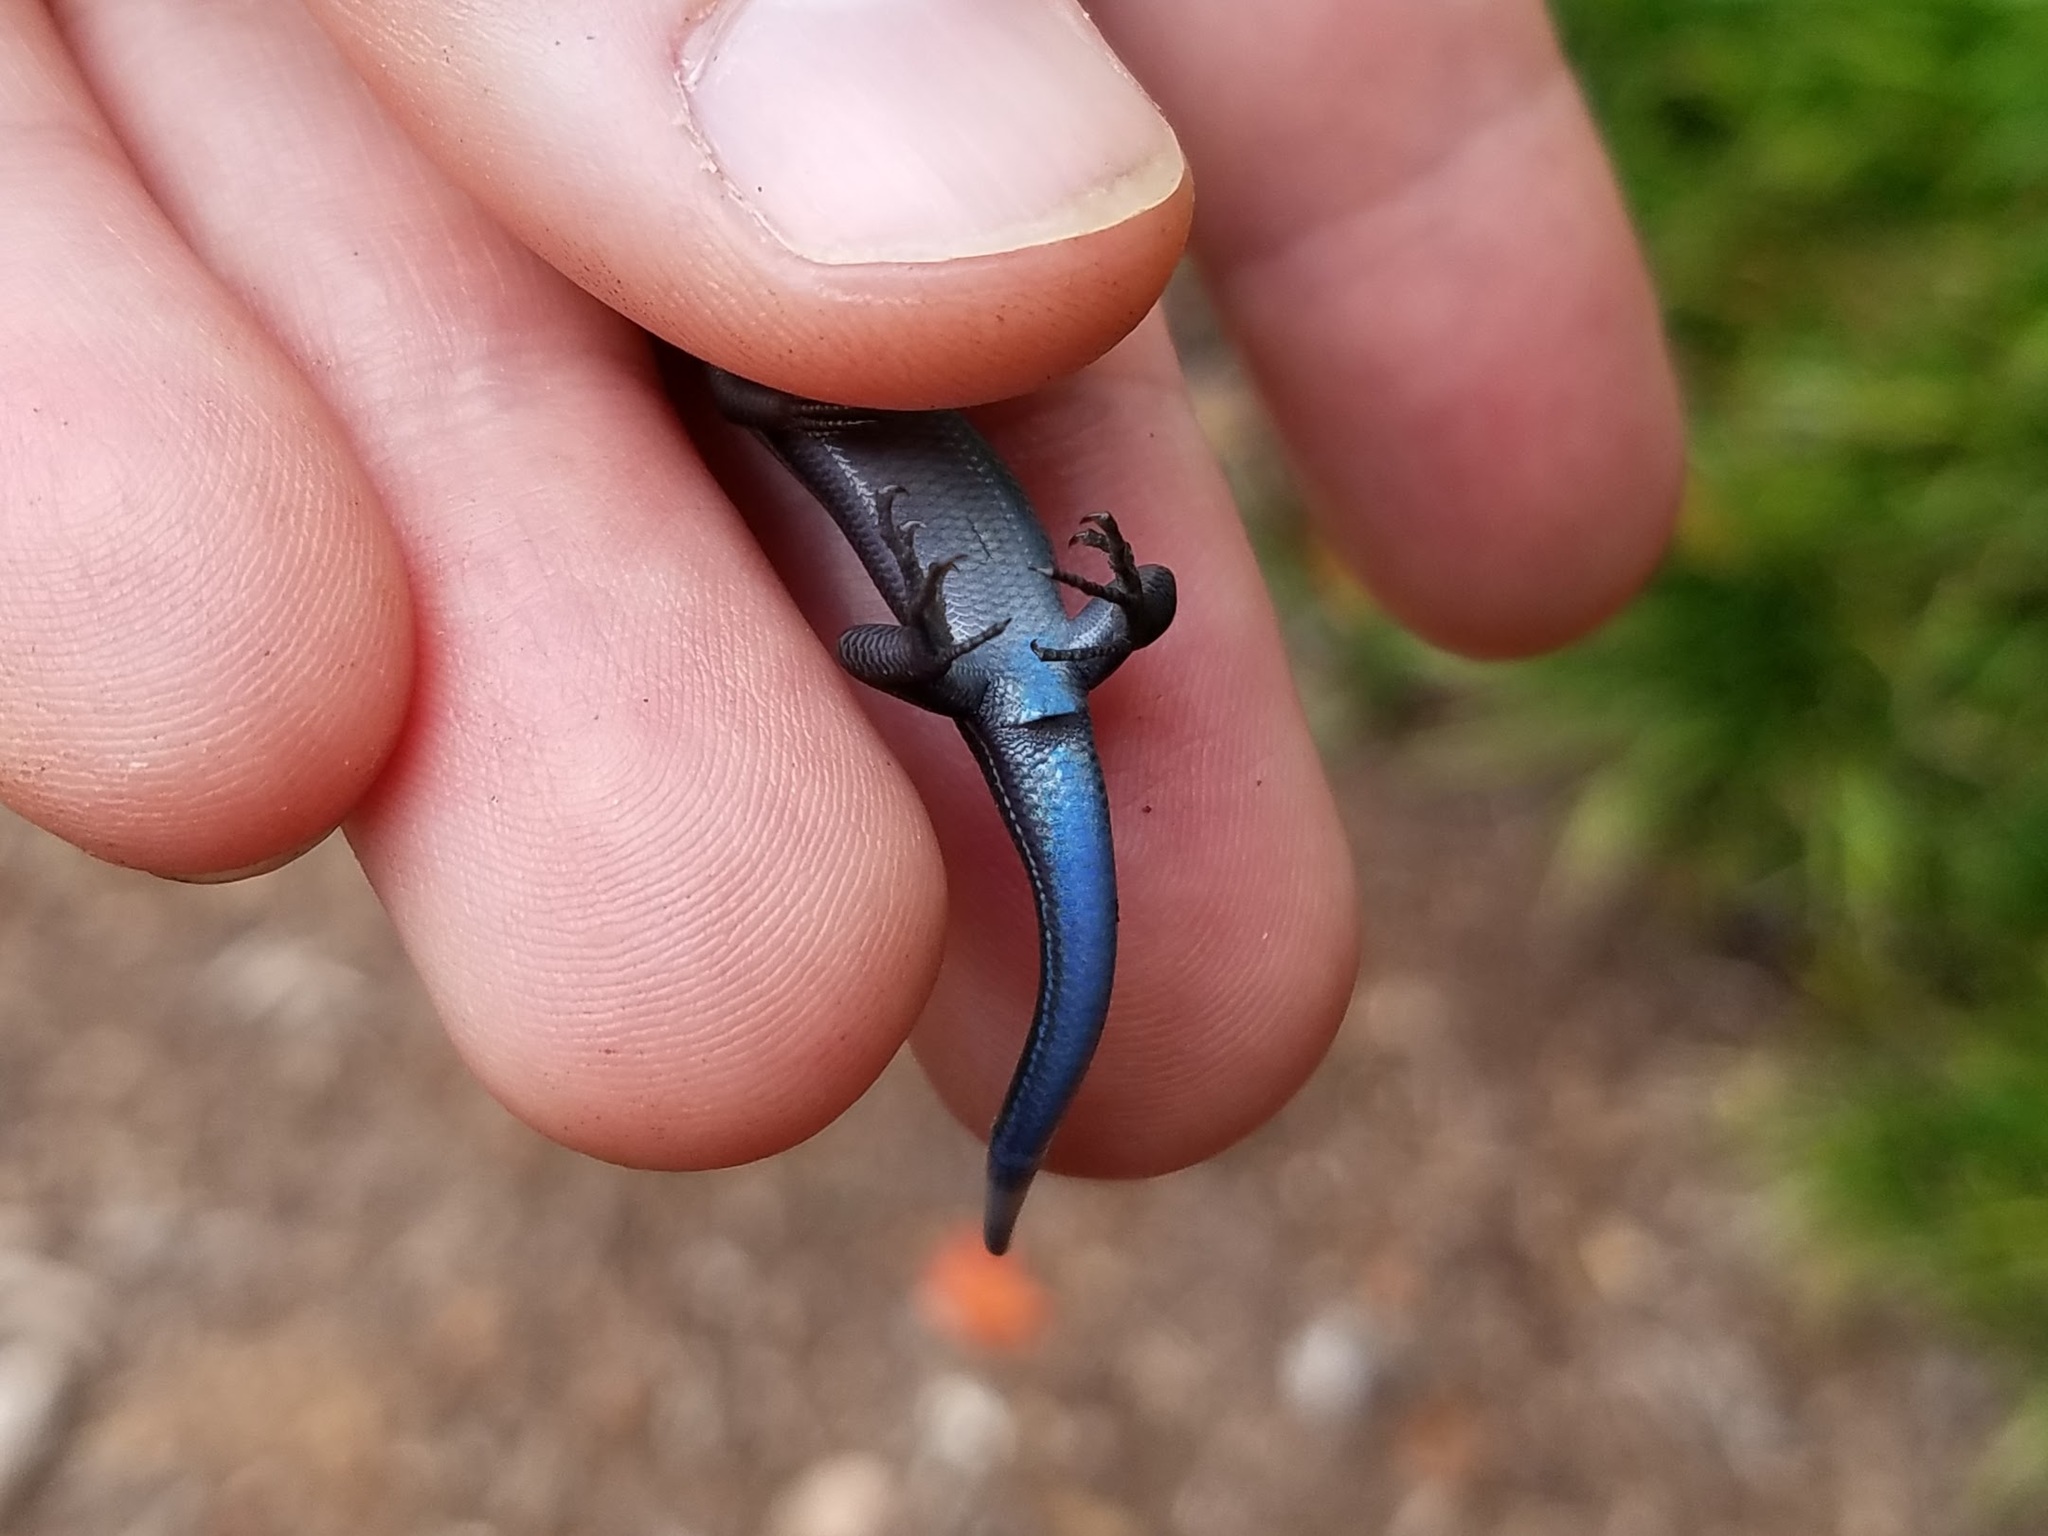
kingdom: Animalia
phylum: Chordata
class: Squamata
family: Scincidae
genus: Plestiodon
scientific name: Plestiodon
